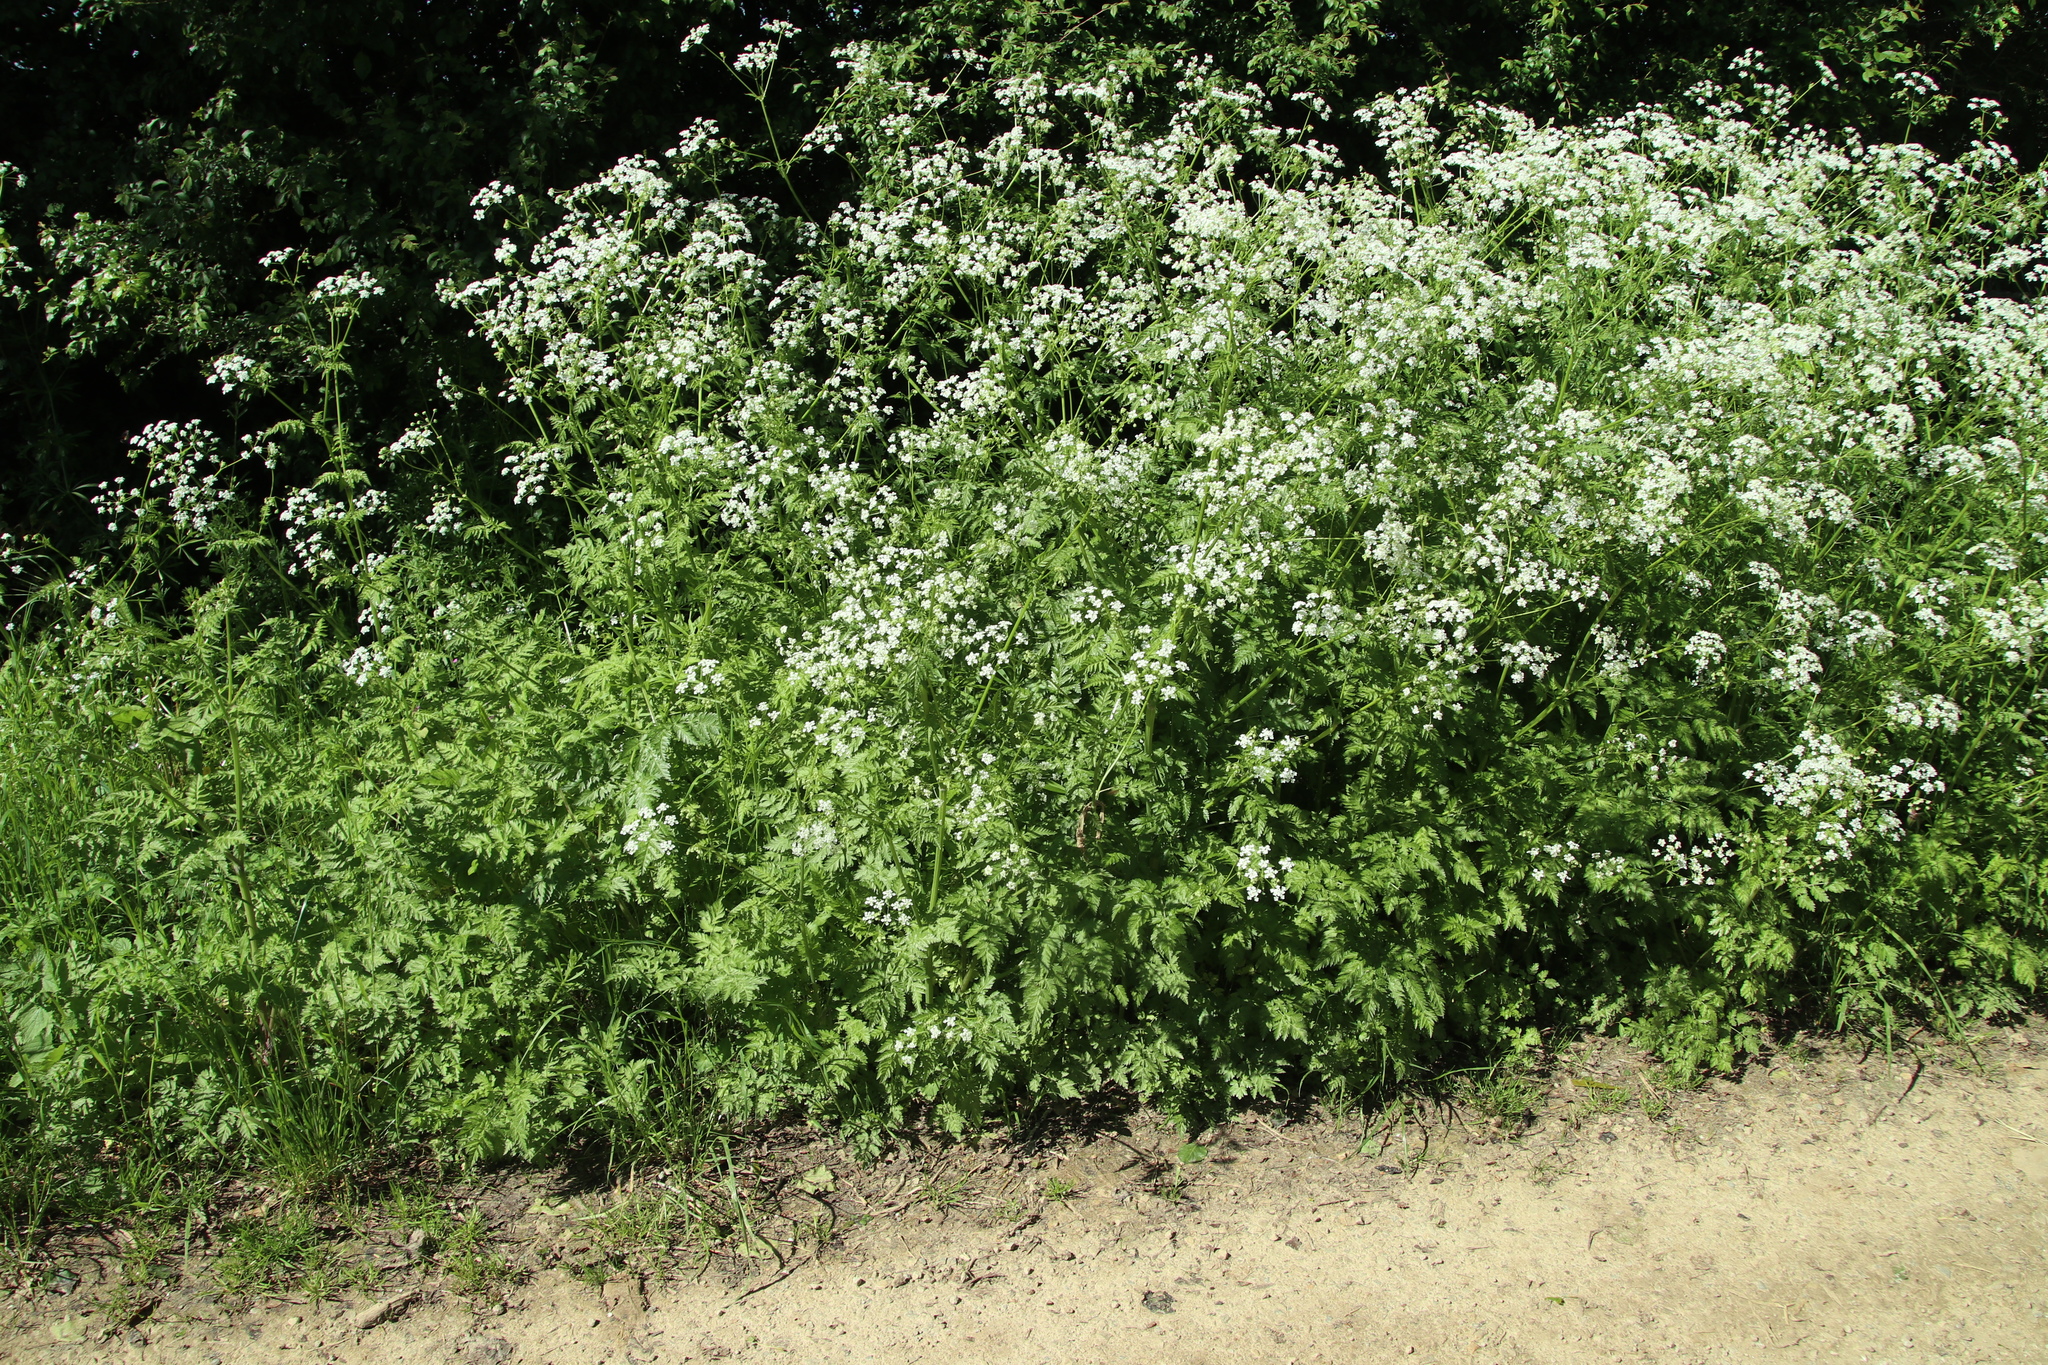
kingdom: Plantae
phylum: Tracheophyta
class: Magnoliopsida
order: Apiales
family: Apiaceae
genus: Anthriscus
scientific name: Anthriscus sylvestris
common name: Cow parsley
